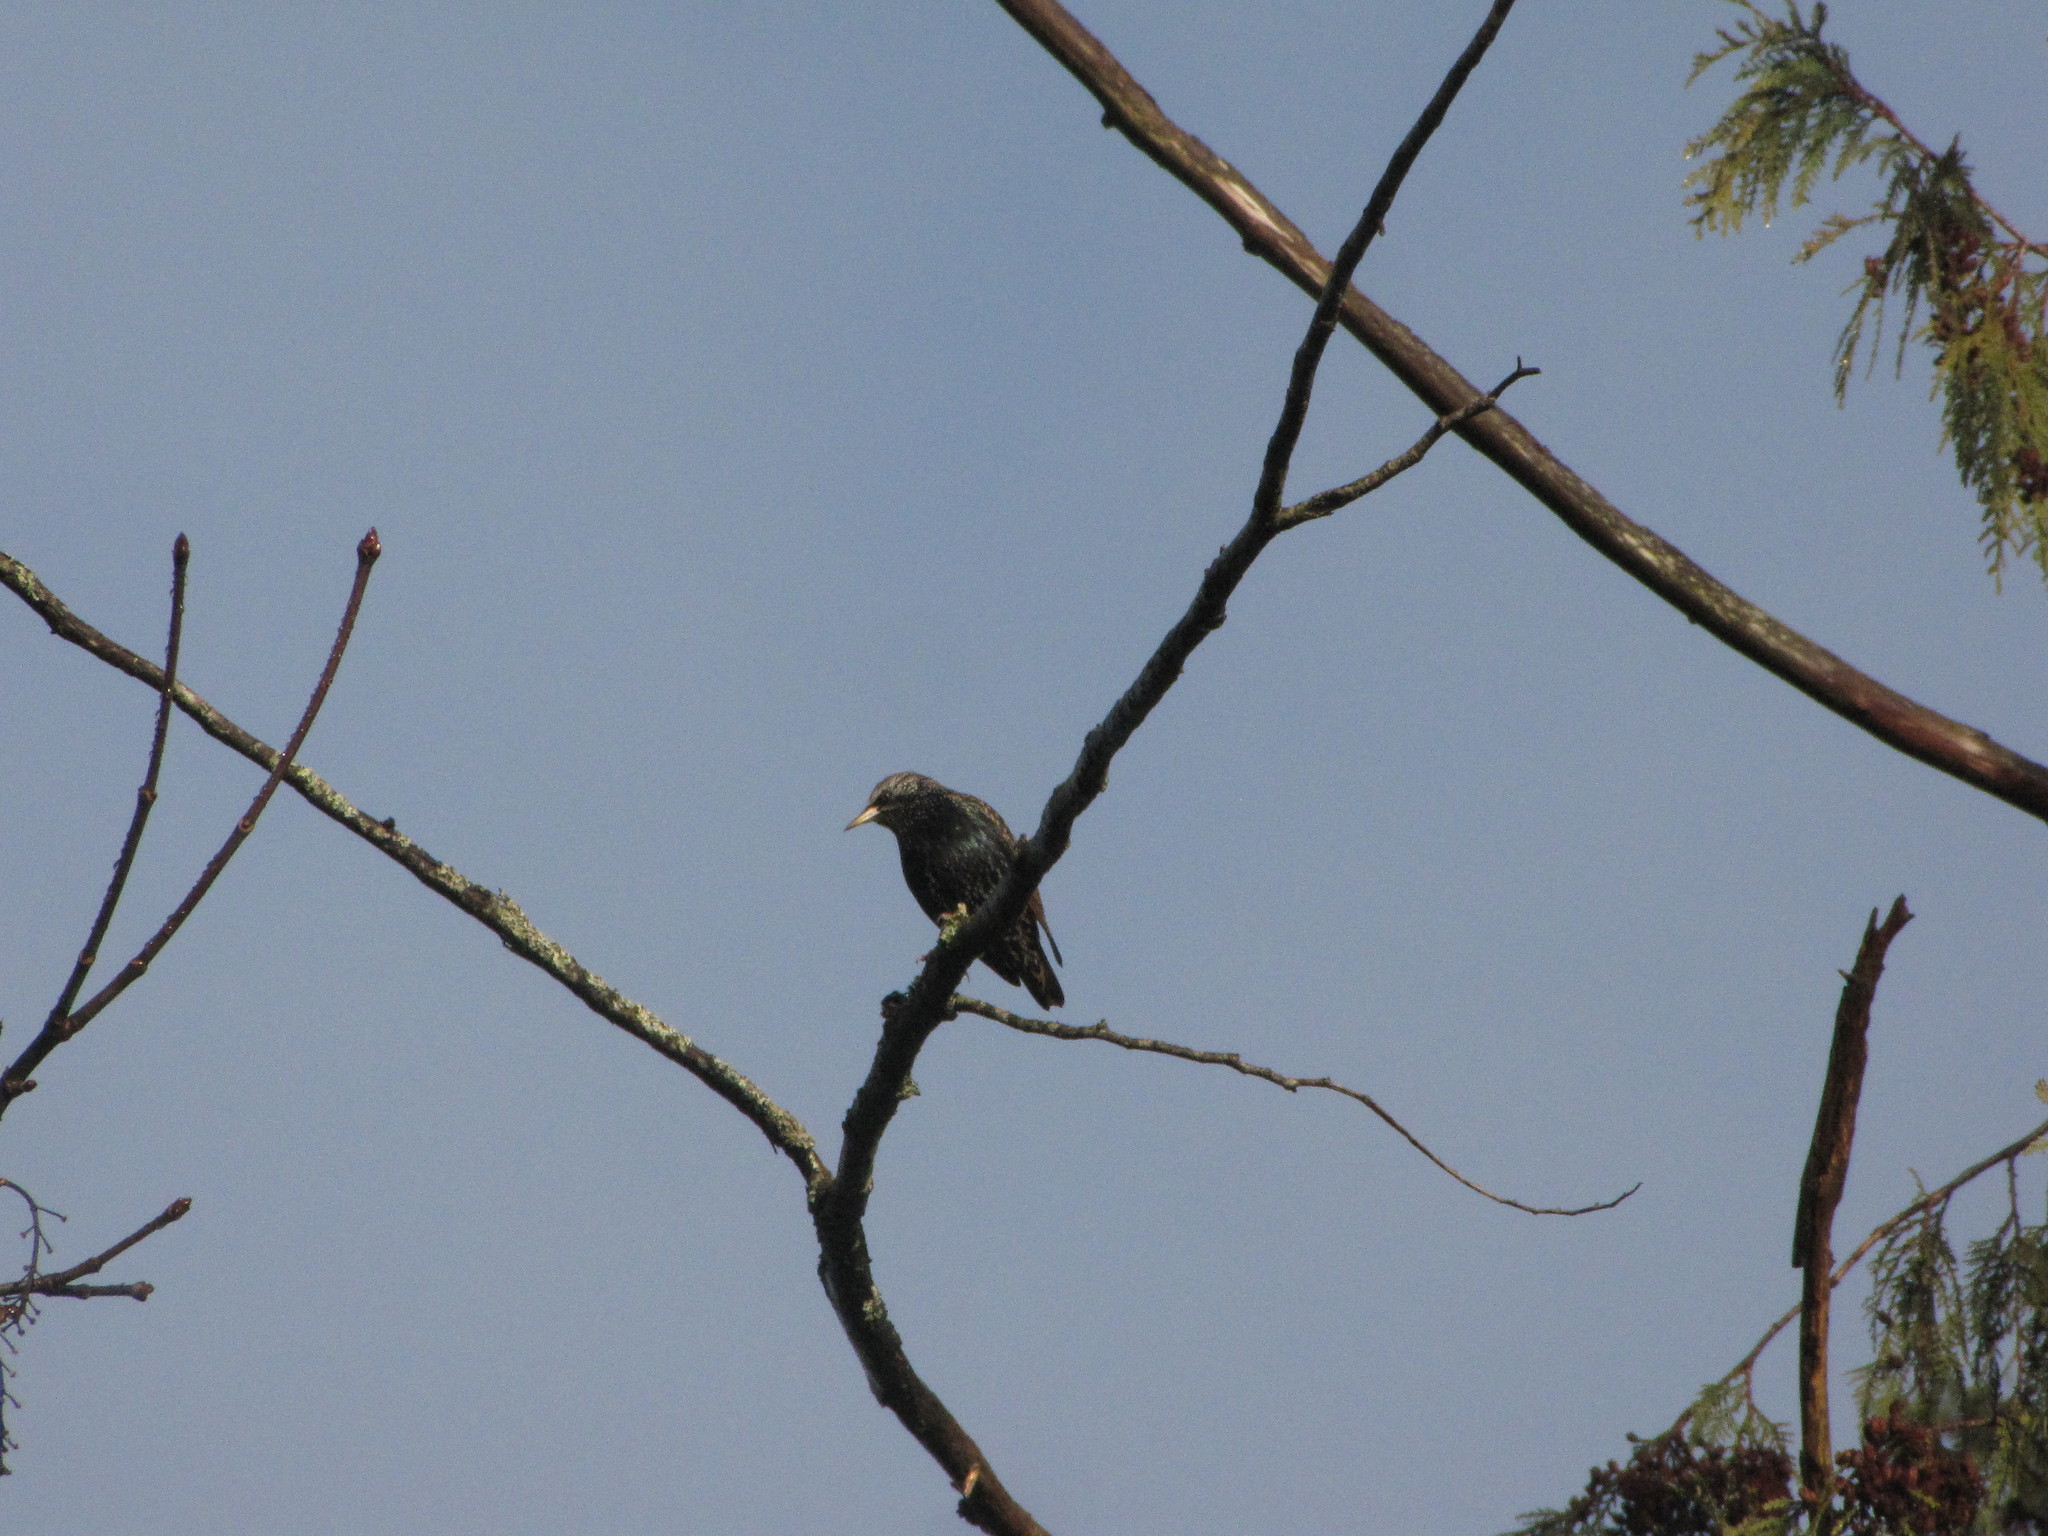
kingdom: Animalia
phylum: Chordata
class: Aves
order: Passeriformes
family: Sturnidae
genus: Sturnus
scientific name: Sturnus vulgaris
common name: Common starling
